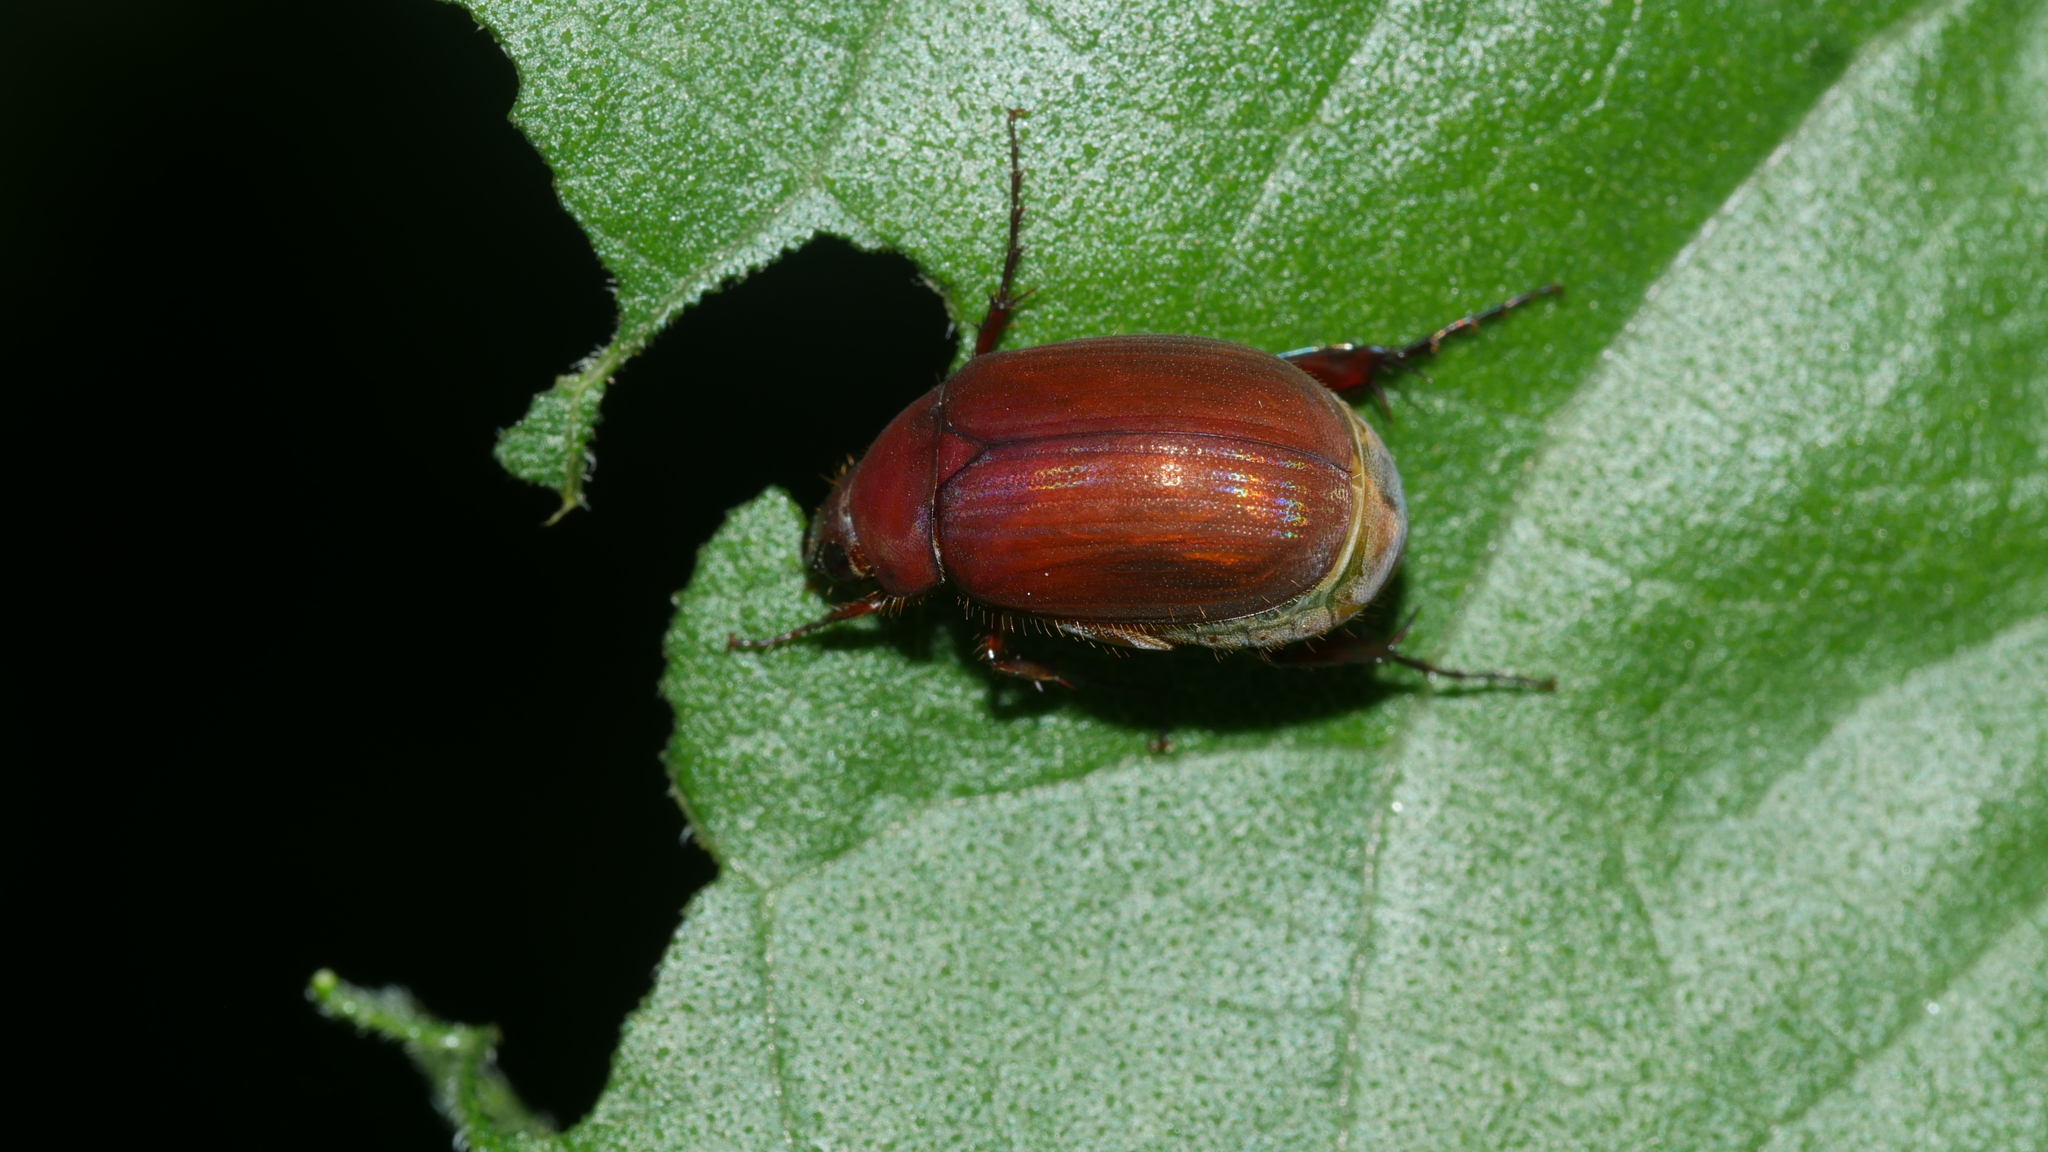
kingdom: Animalia
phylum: Arthropoda
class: Insecta
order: Coleoptera
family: Scarabaeidae
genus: Maladera
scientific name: Maladera formosae
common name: Asiatic garden beetle
